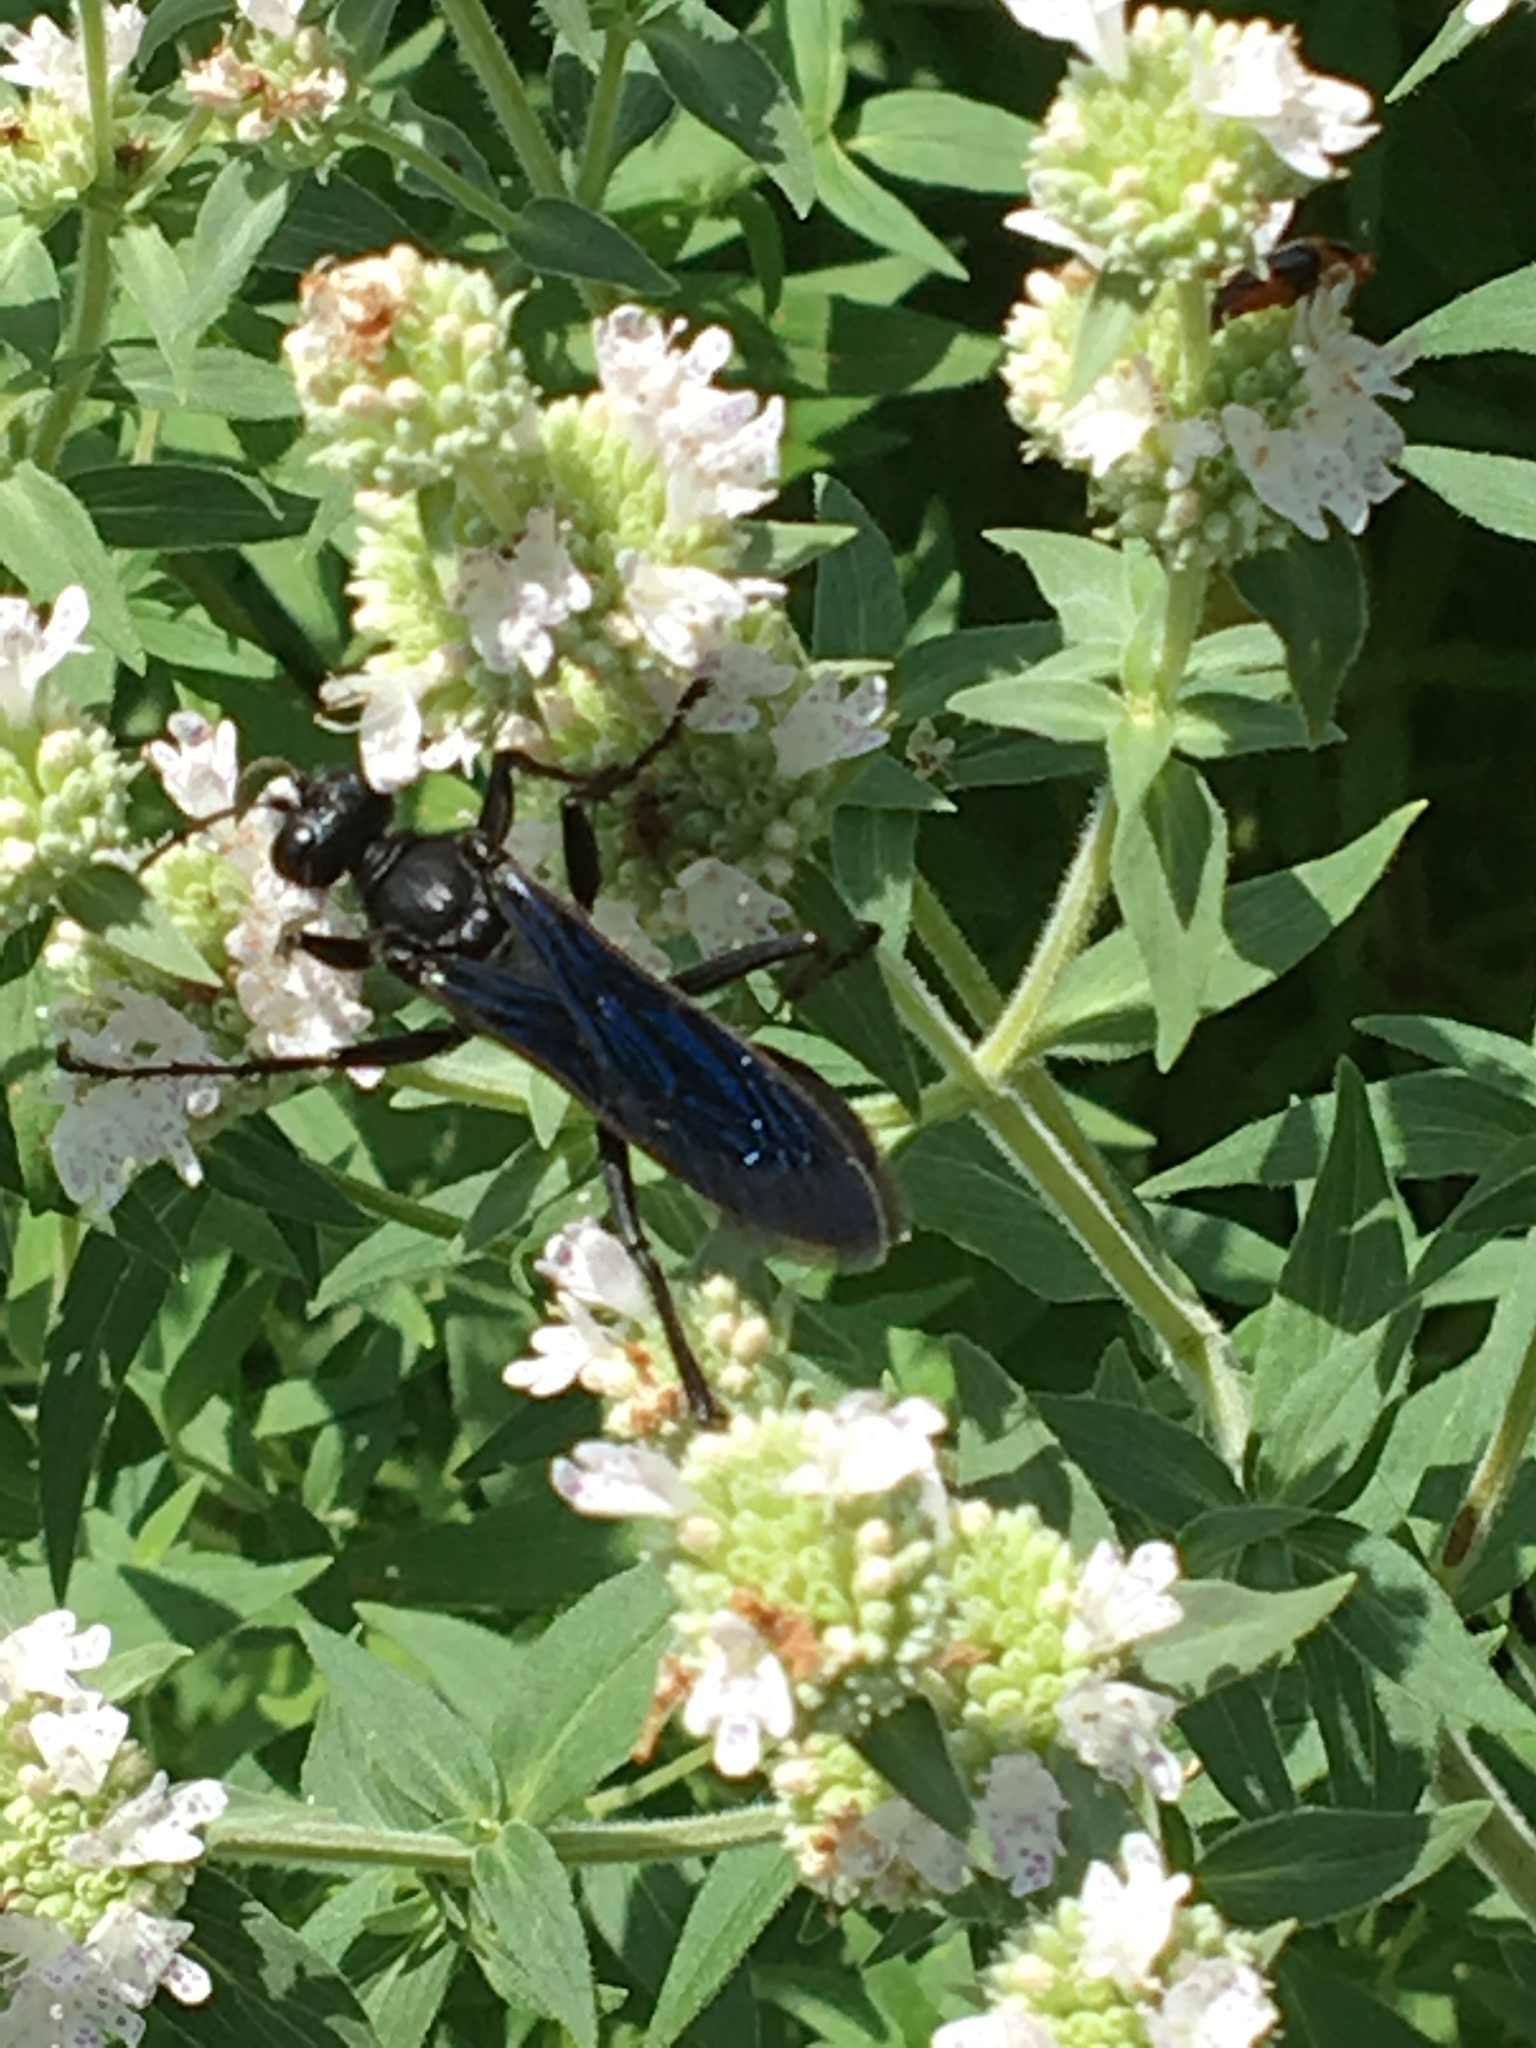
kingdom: Animalia
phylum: Arthropoda
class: Insecta
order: Hymenoptera
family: Sphecidae
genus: Sphex
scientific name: Sphex pensylvanicus
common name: Great black digger wasp
